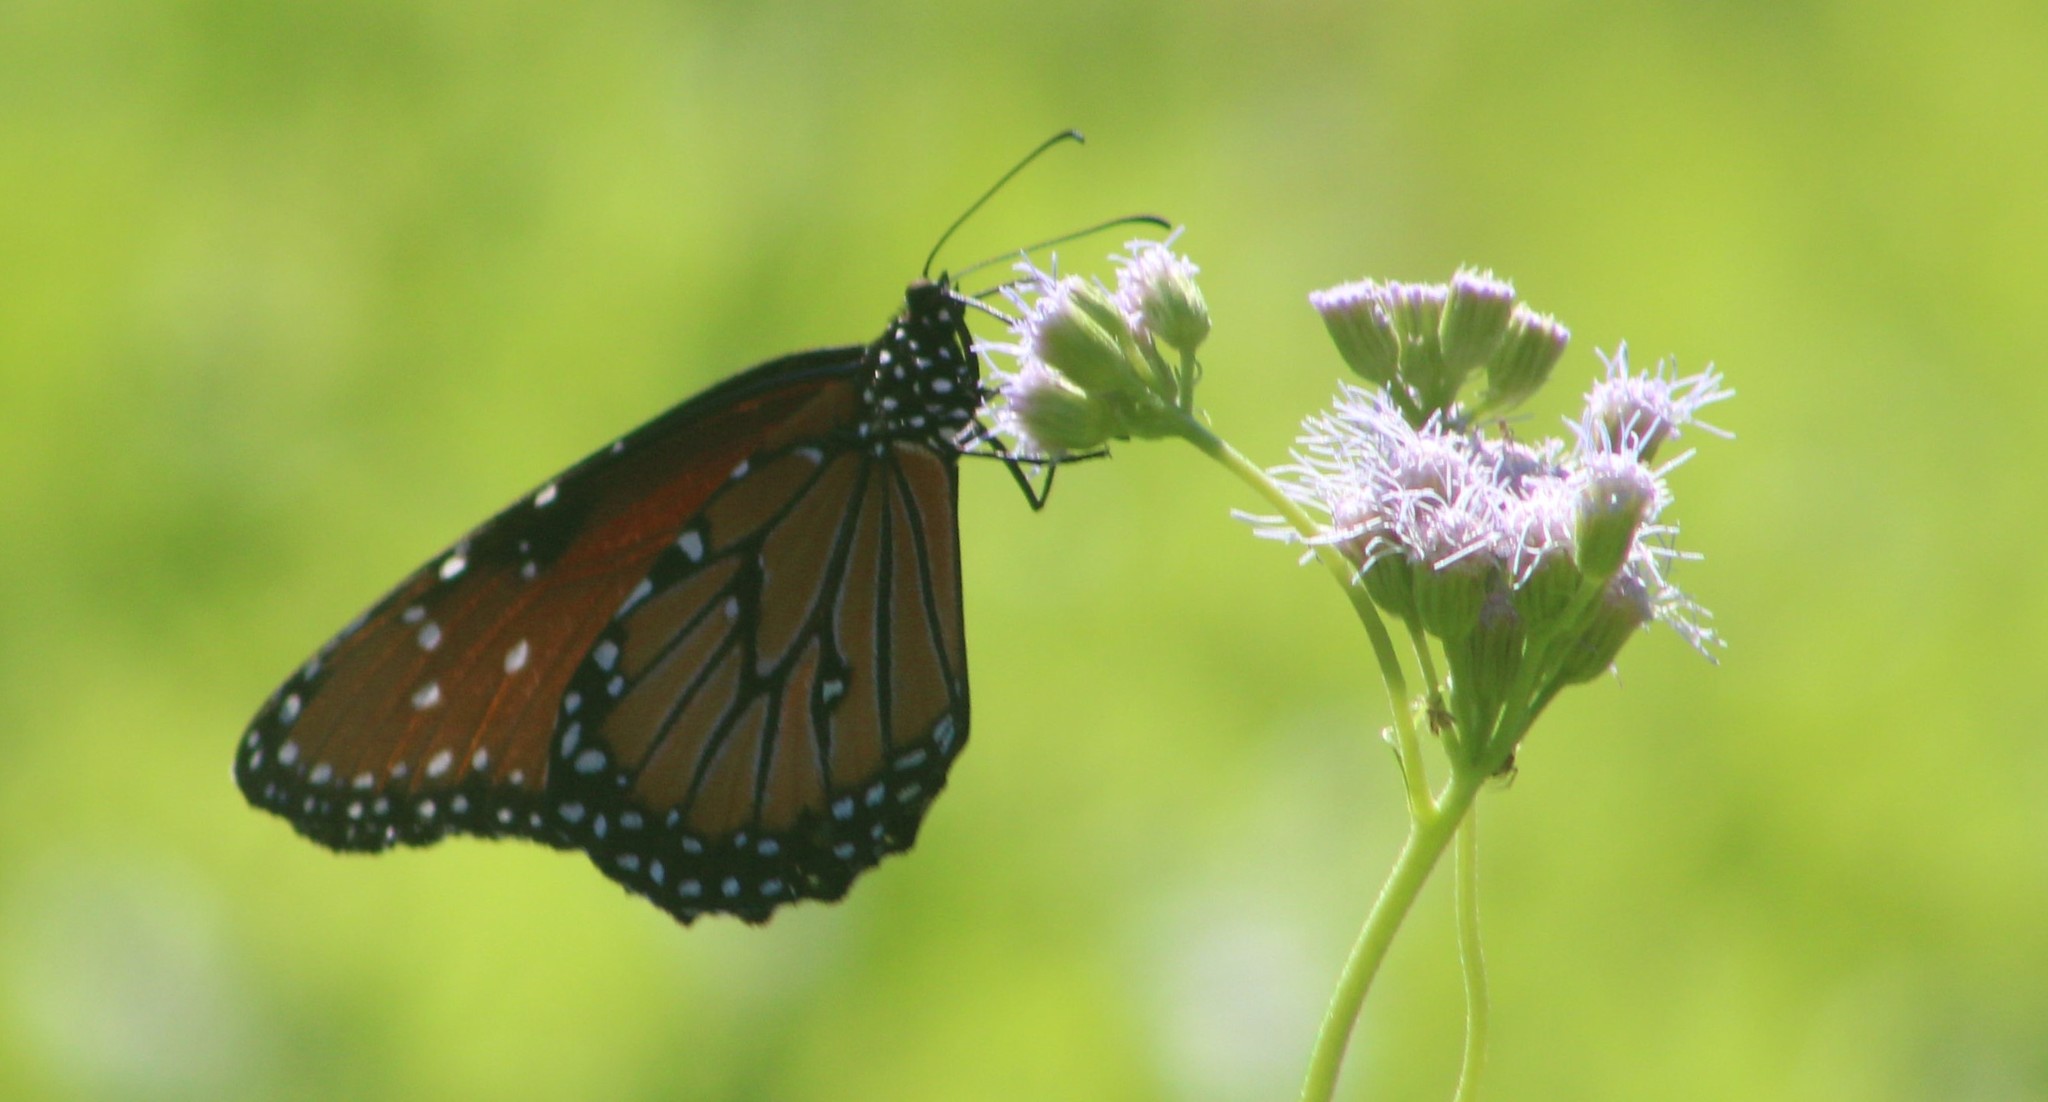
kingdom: Animalia
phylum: Arthropoda
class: Insecta
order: Lepidoptera
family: Nymphalidae
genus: Danaus
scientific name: Danaus gilippus
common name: Queen
